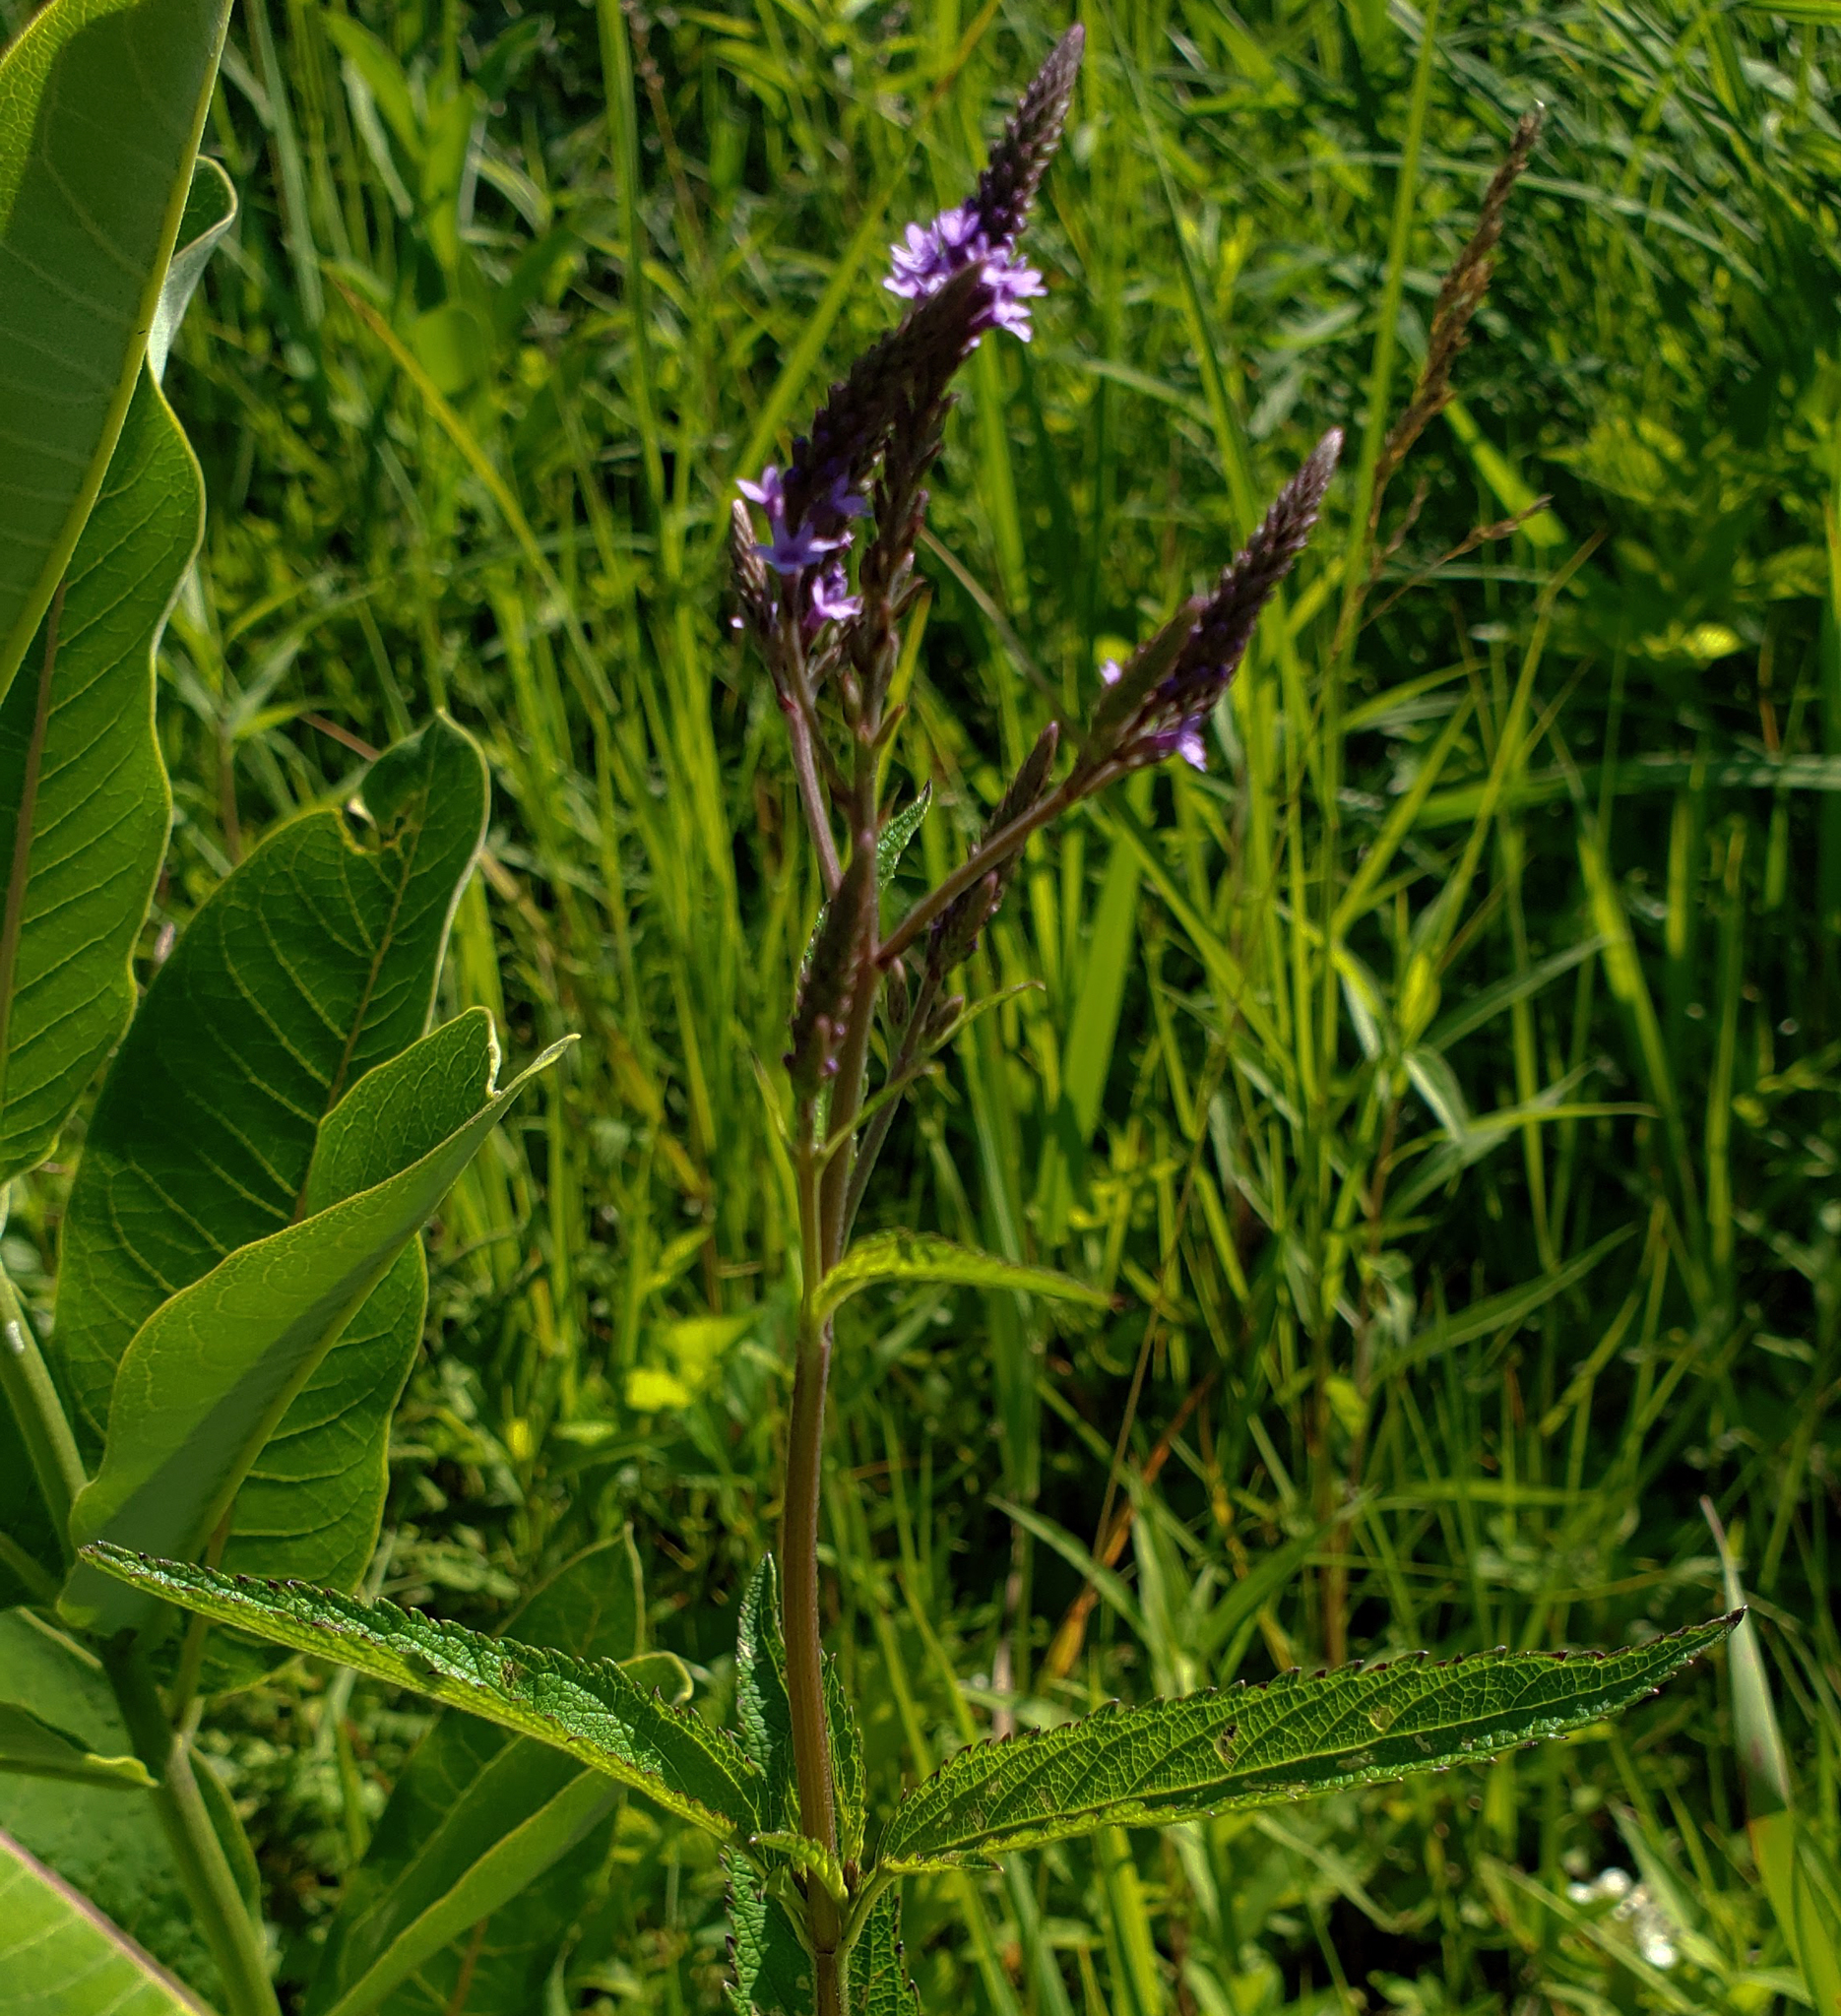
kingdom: Plantae
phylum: Tracheophyta
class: Magnoliopsida
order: Lamiales
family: Verbenaceae
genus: Verbena
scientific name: Verbena hastata
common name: American blue vervain
